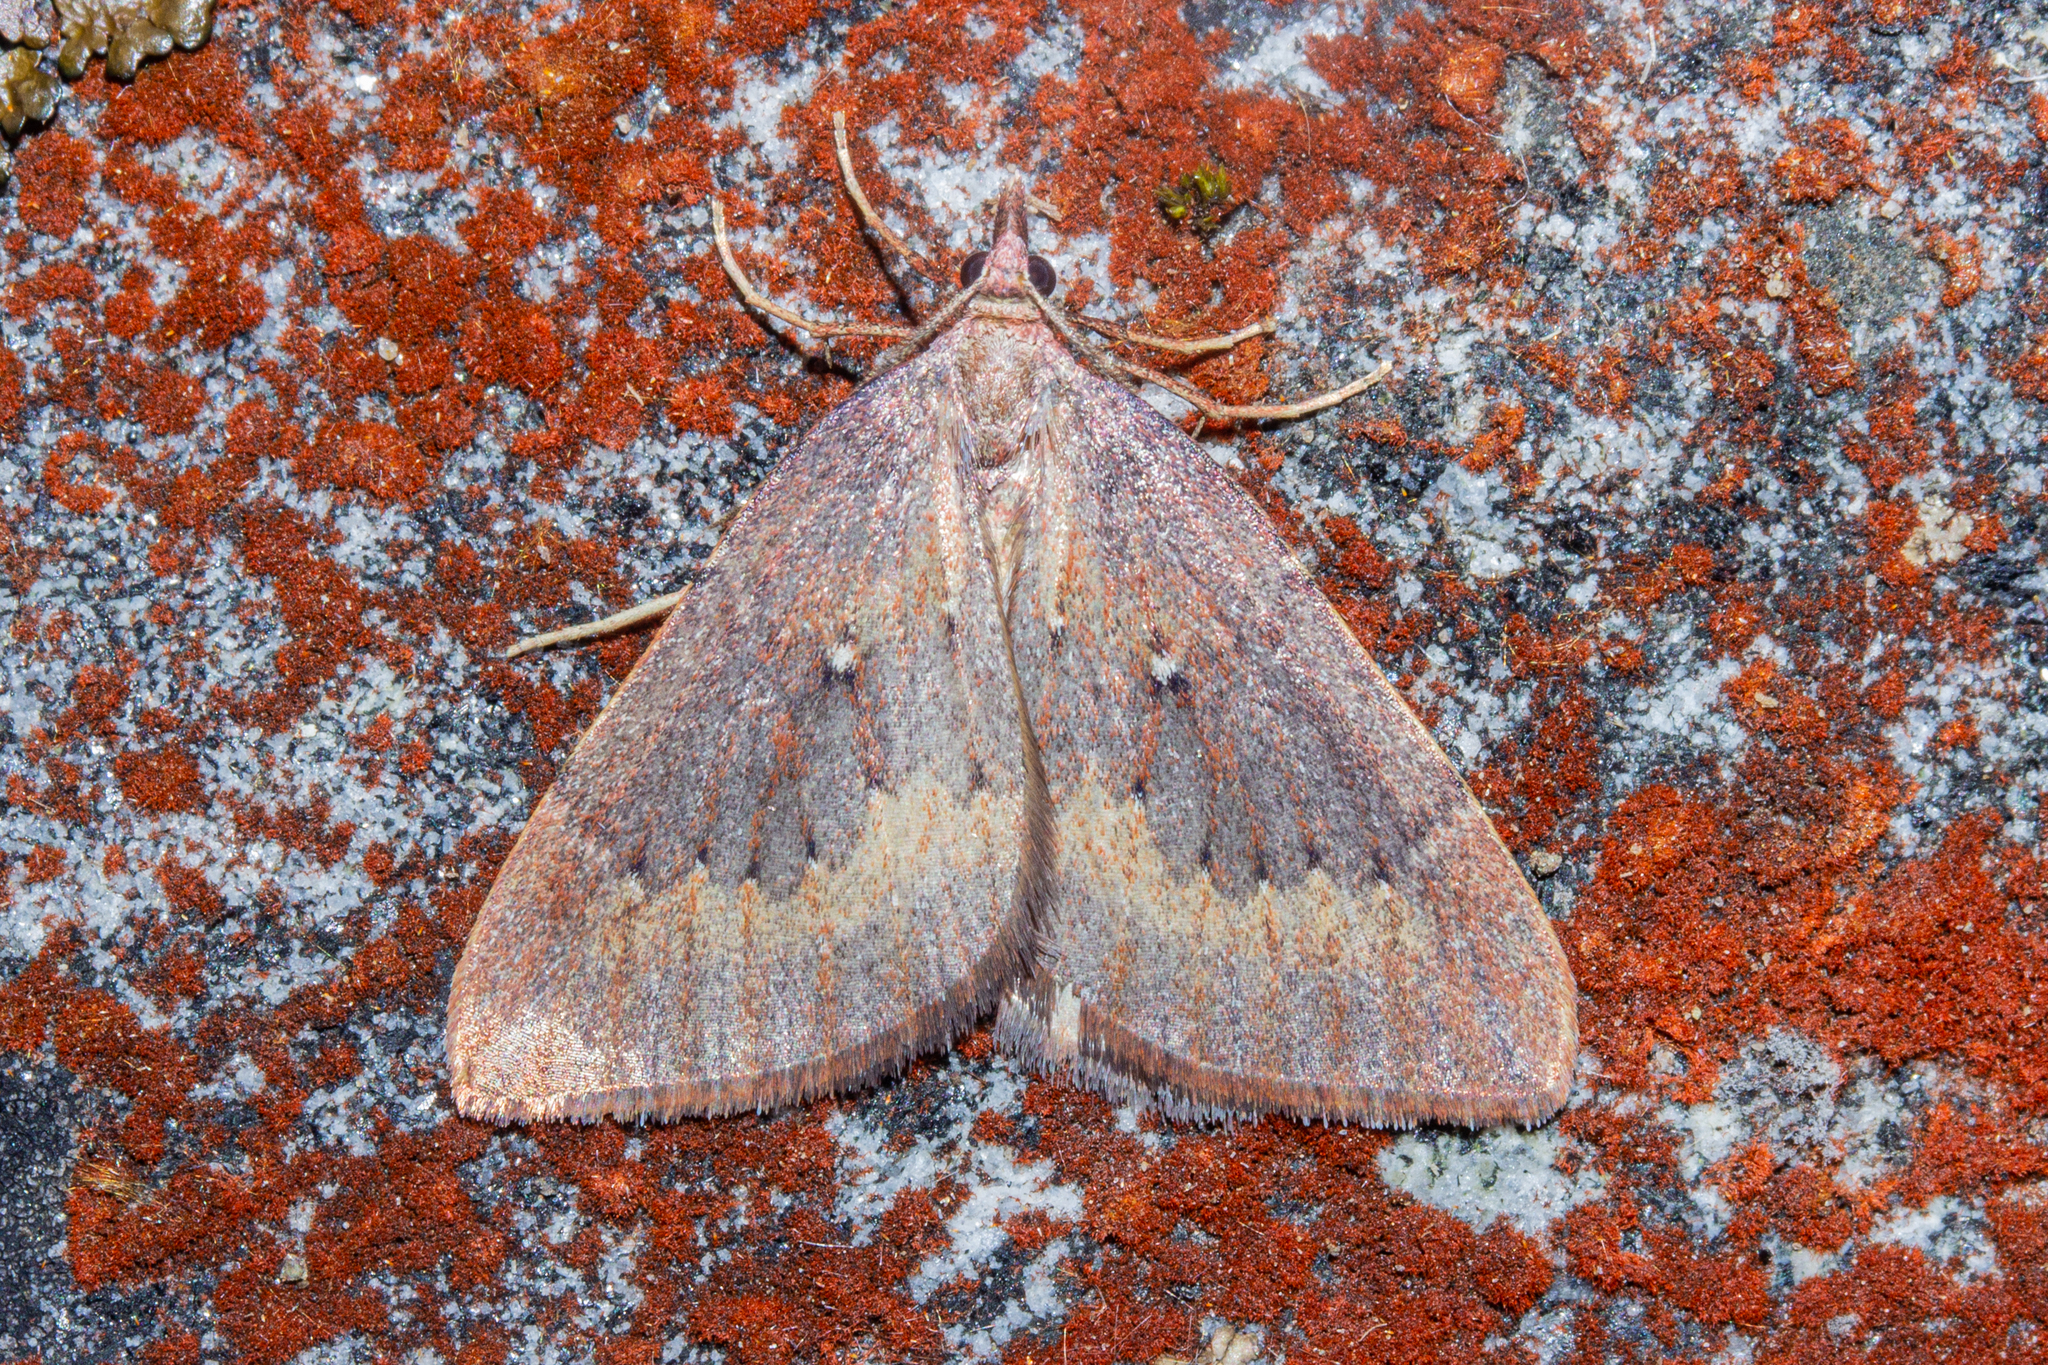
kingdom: Animalia
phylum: Arthropoda
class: Insecta
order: Lepidoptera
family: Geometridae
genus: Xanthorhoe
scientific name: Xanthorhoe occulta
